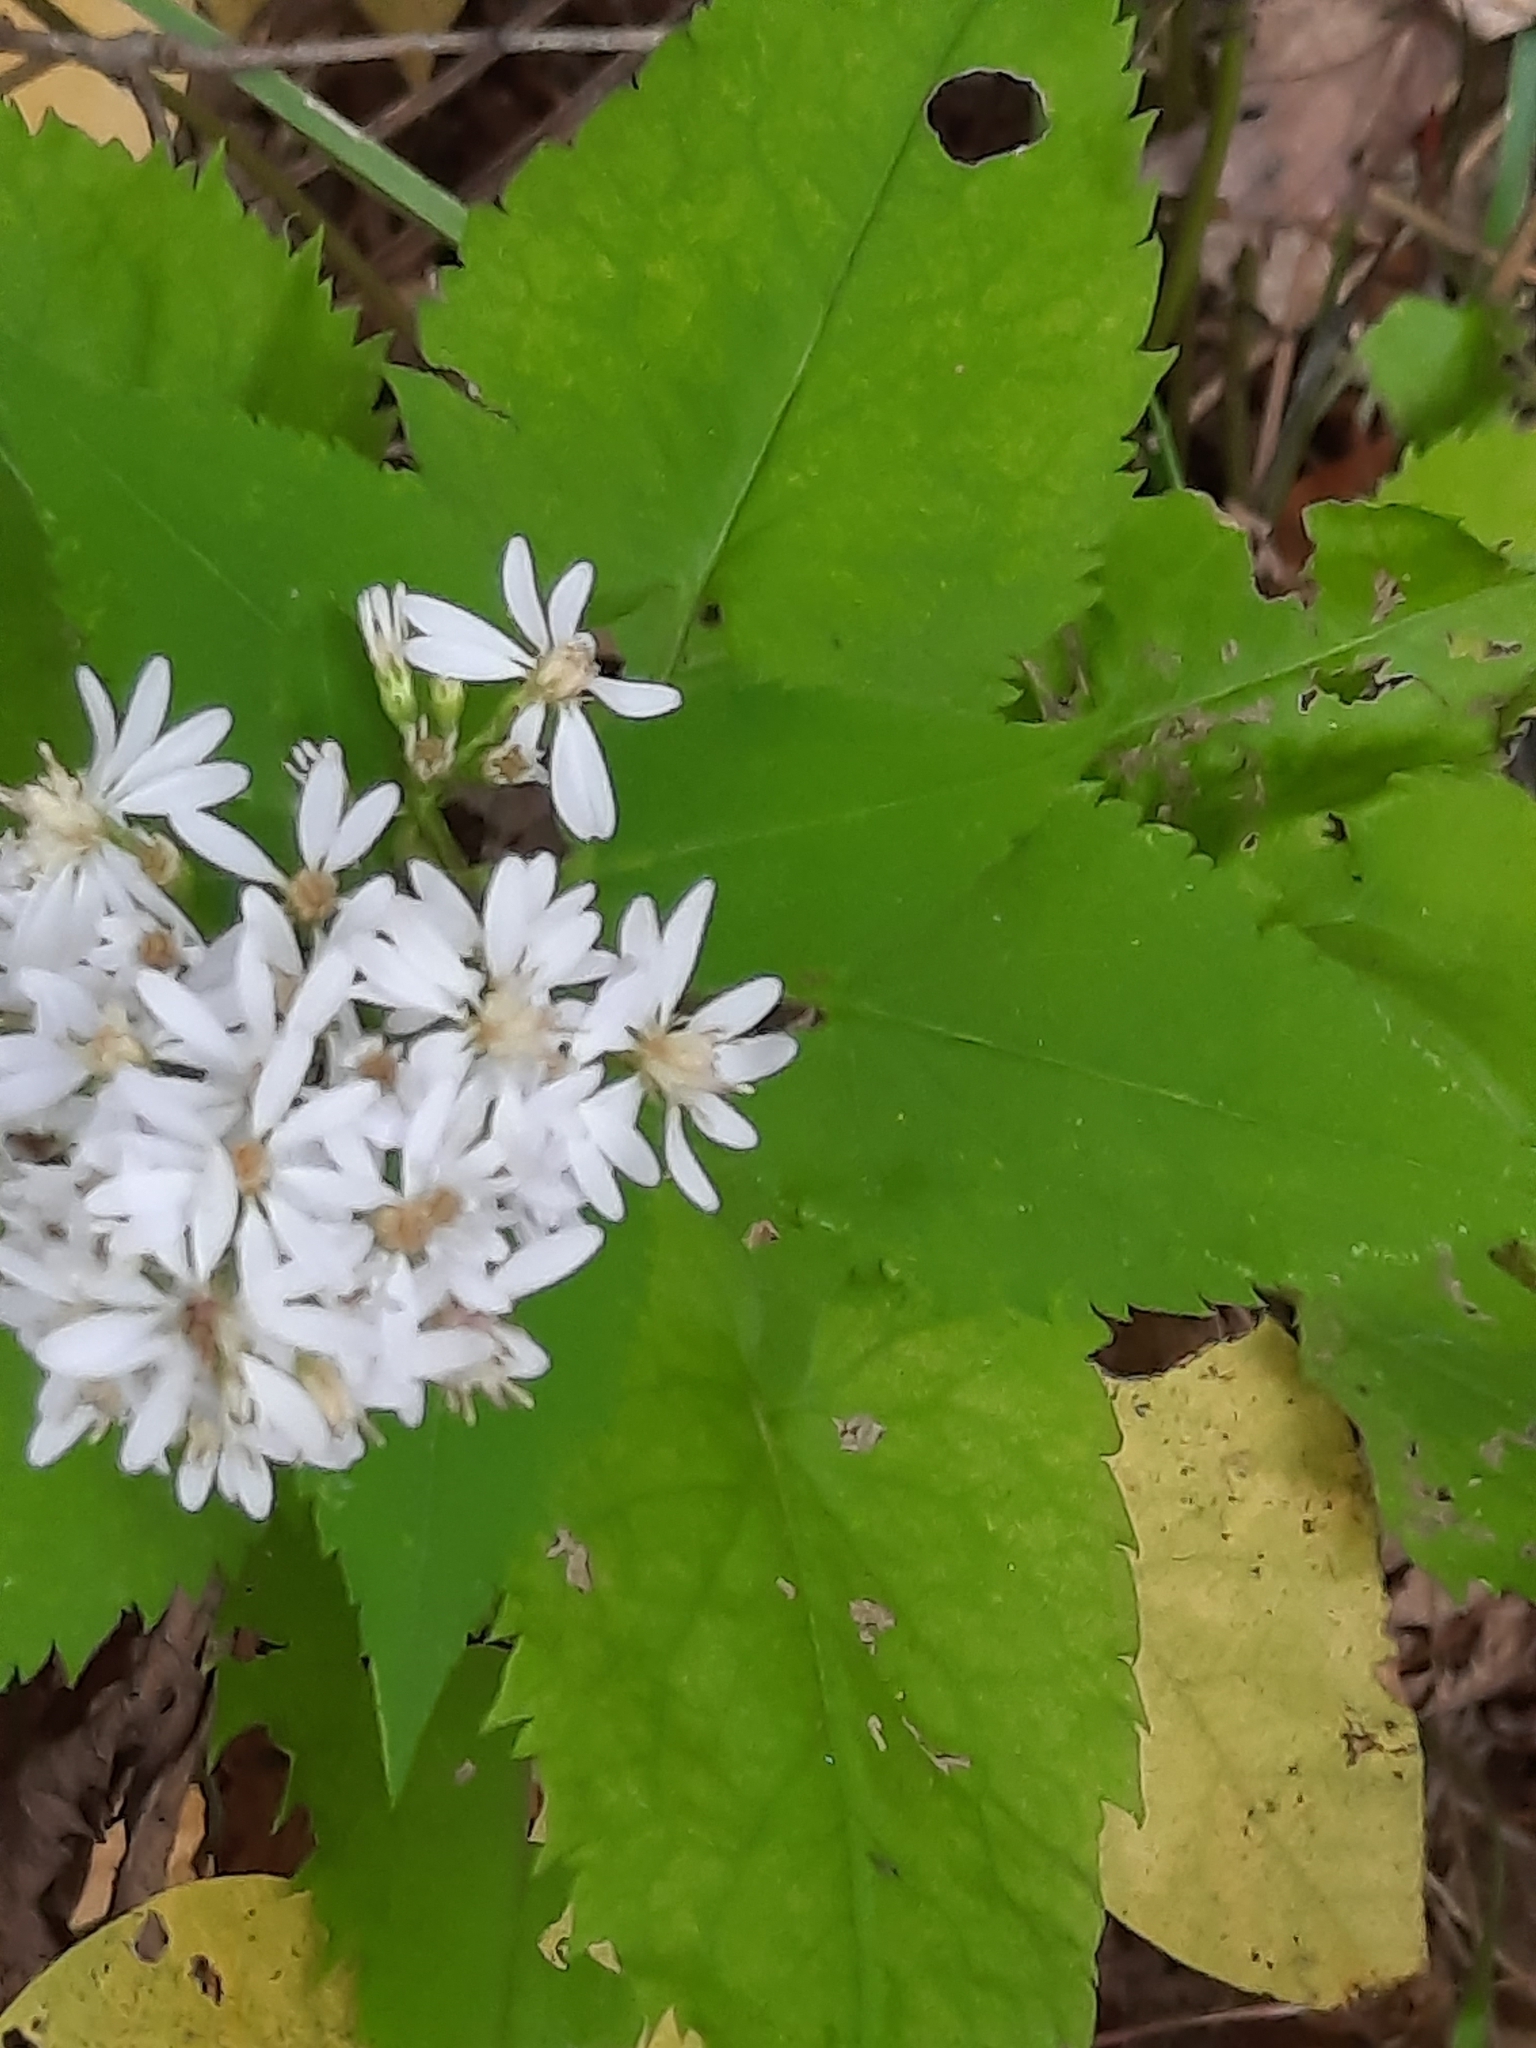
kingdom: Plantae
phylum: Tracheophyta
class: Magnoliopsida
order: Asterales
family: Asteraceae
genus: Symphyotrichum
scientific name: Symphyotrichum cordifolium
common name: Beeweed
